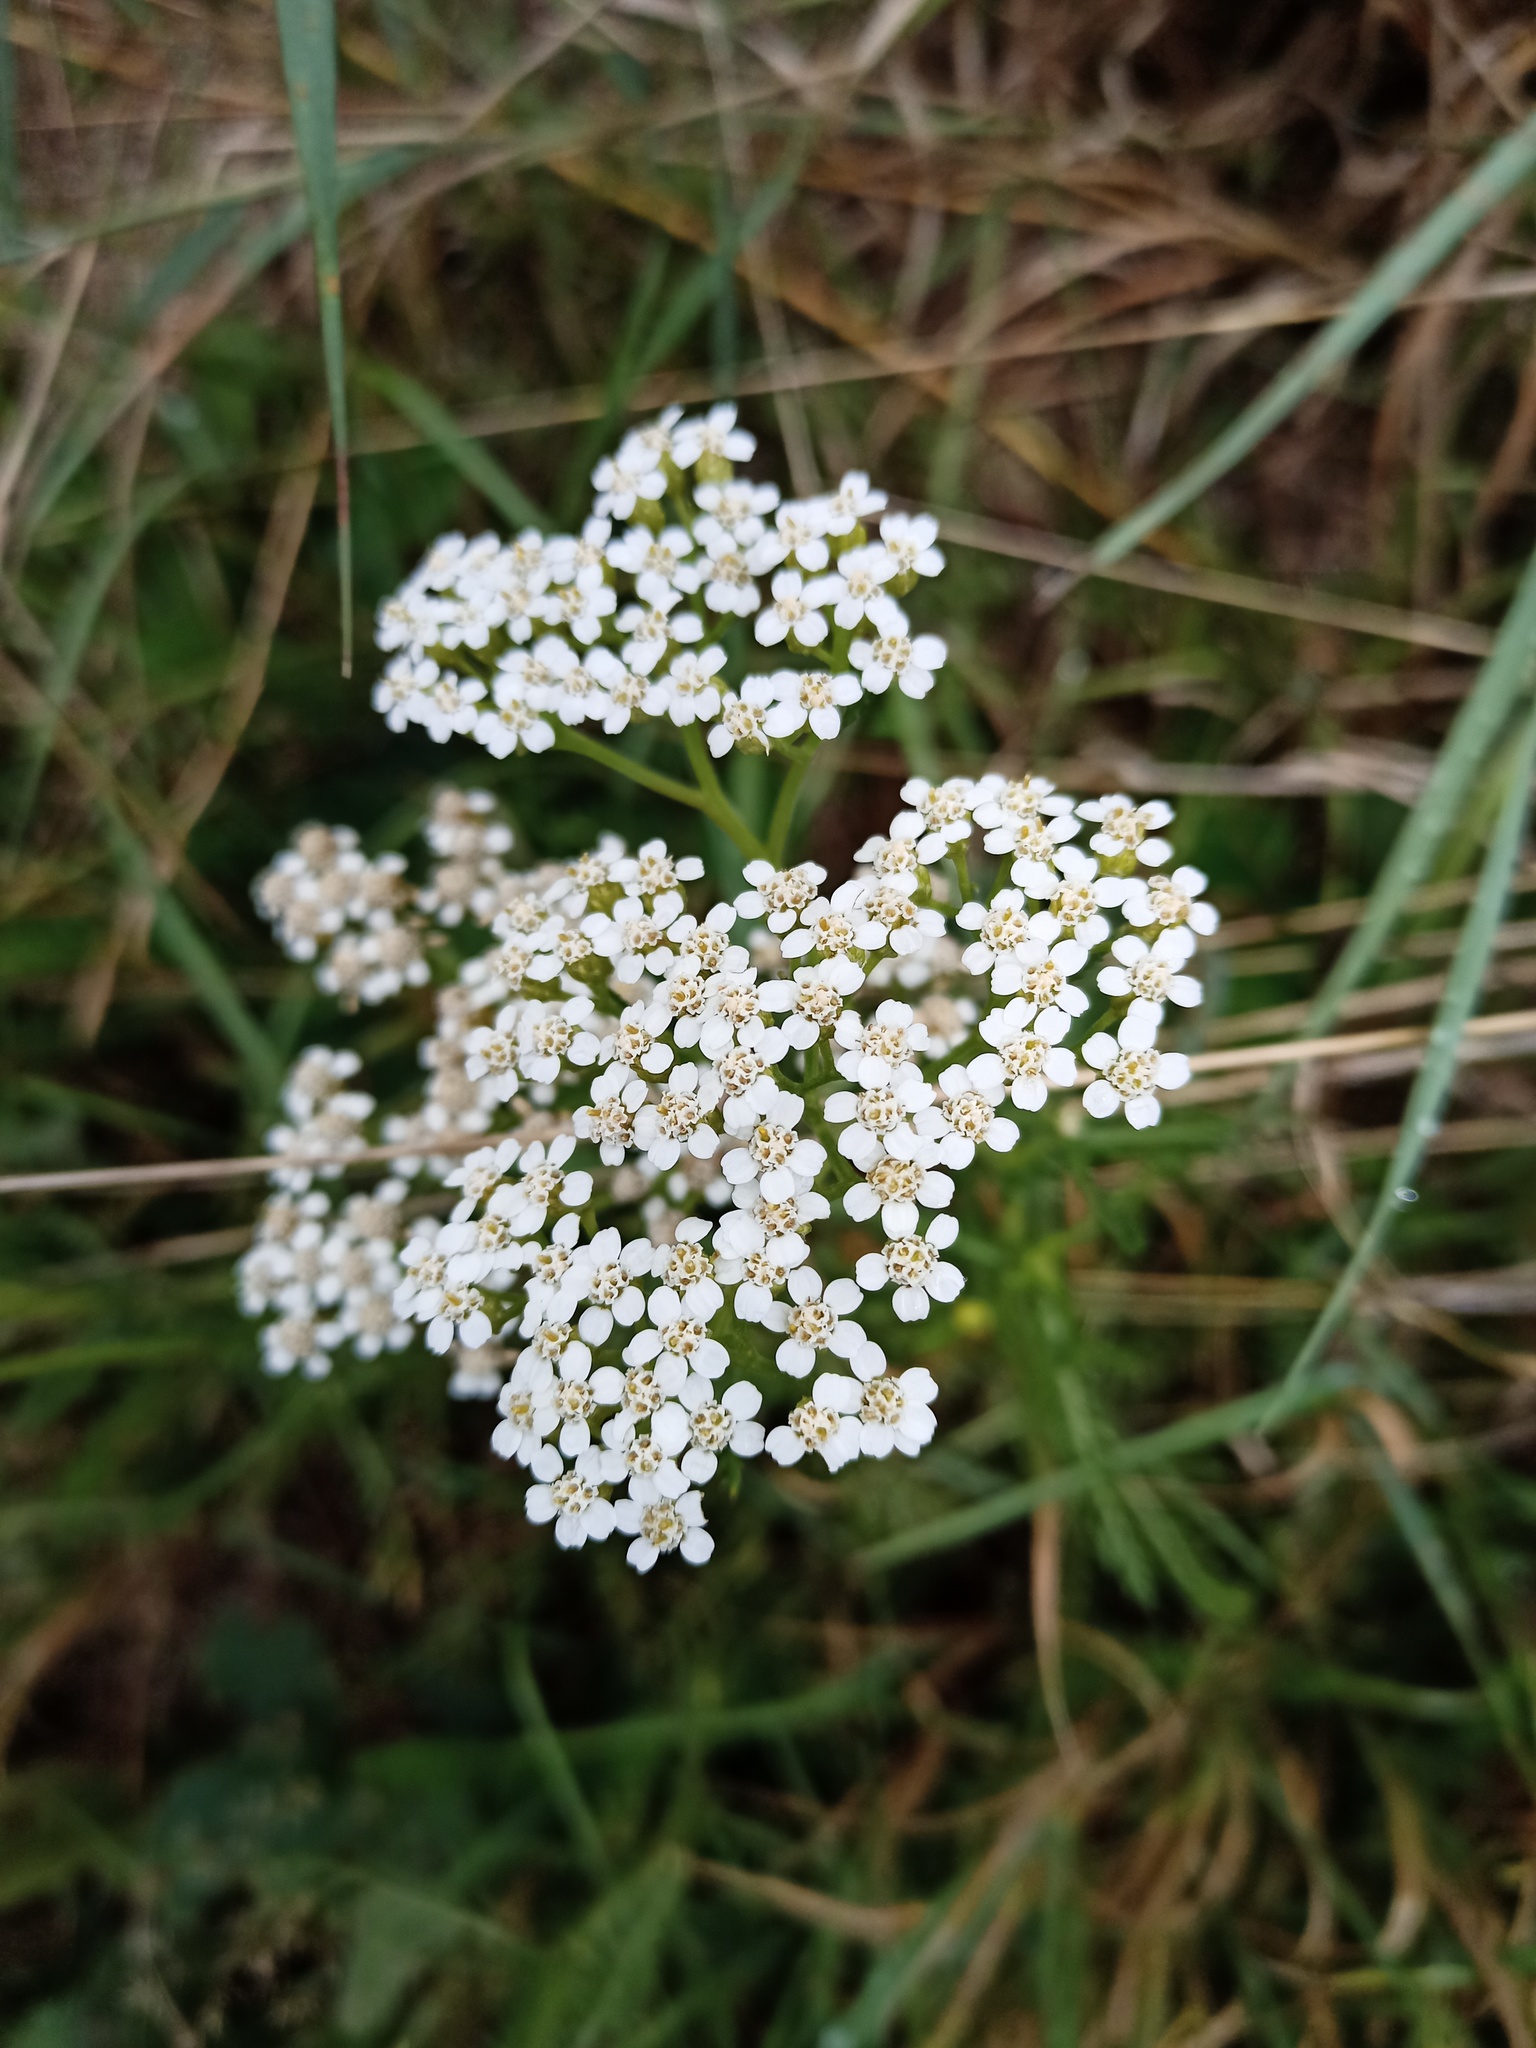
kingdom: Plantae
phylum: Tracheophyta
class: Magnoliopsida
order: Asterales
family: Asteraceae
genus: Achillea
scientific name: Achillea millefolium
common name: Yarrow
